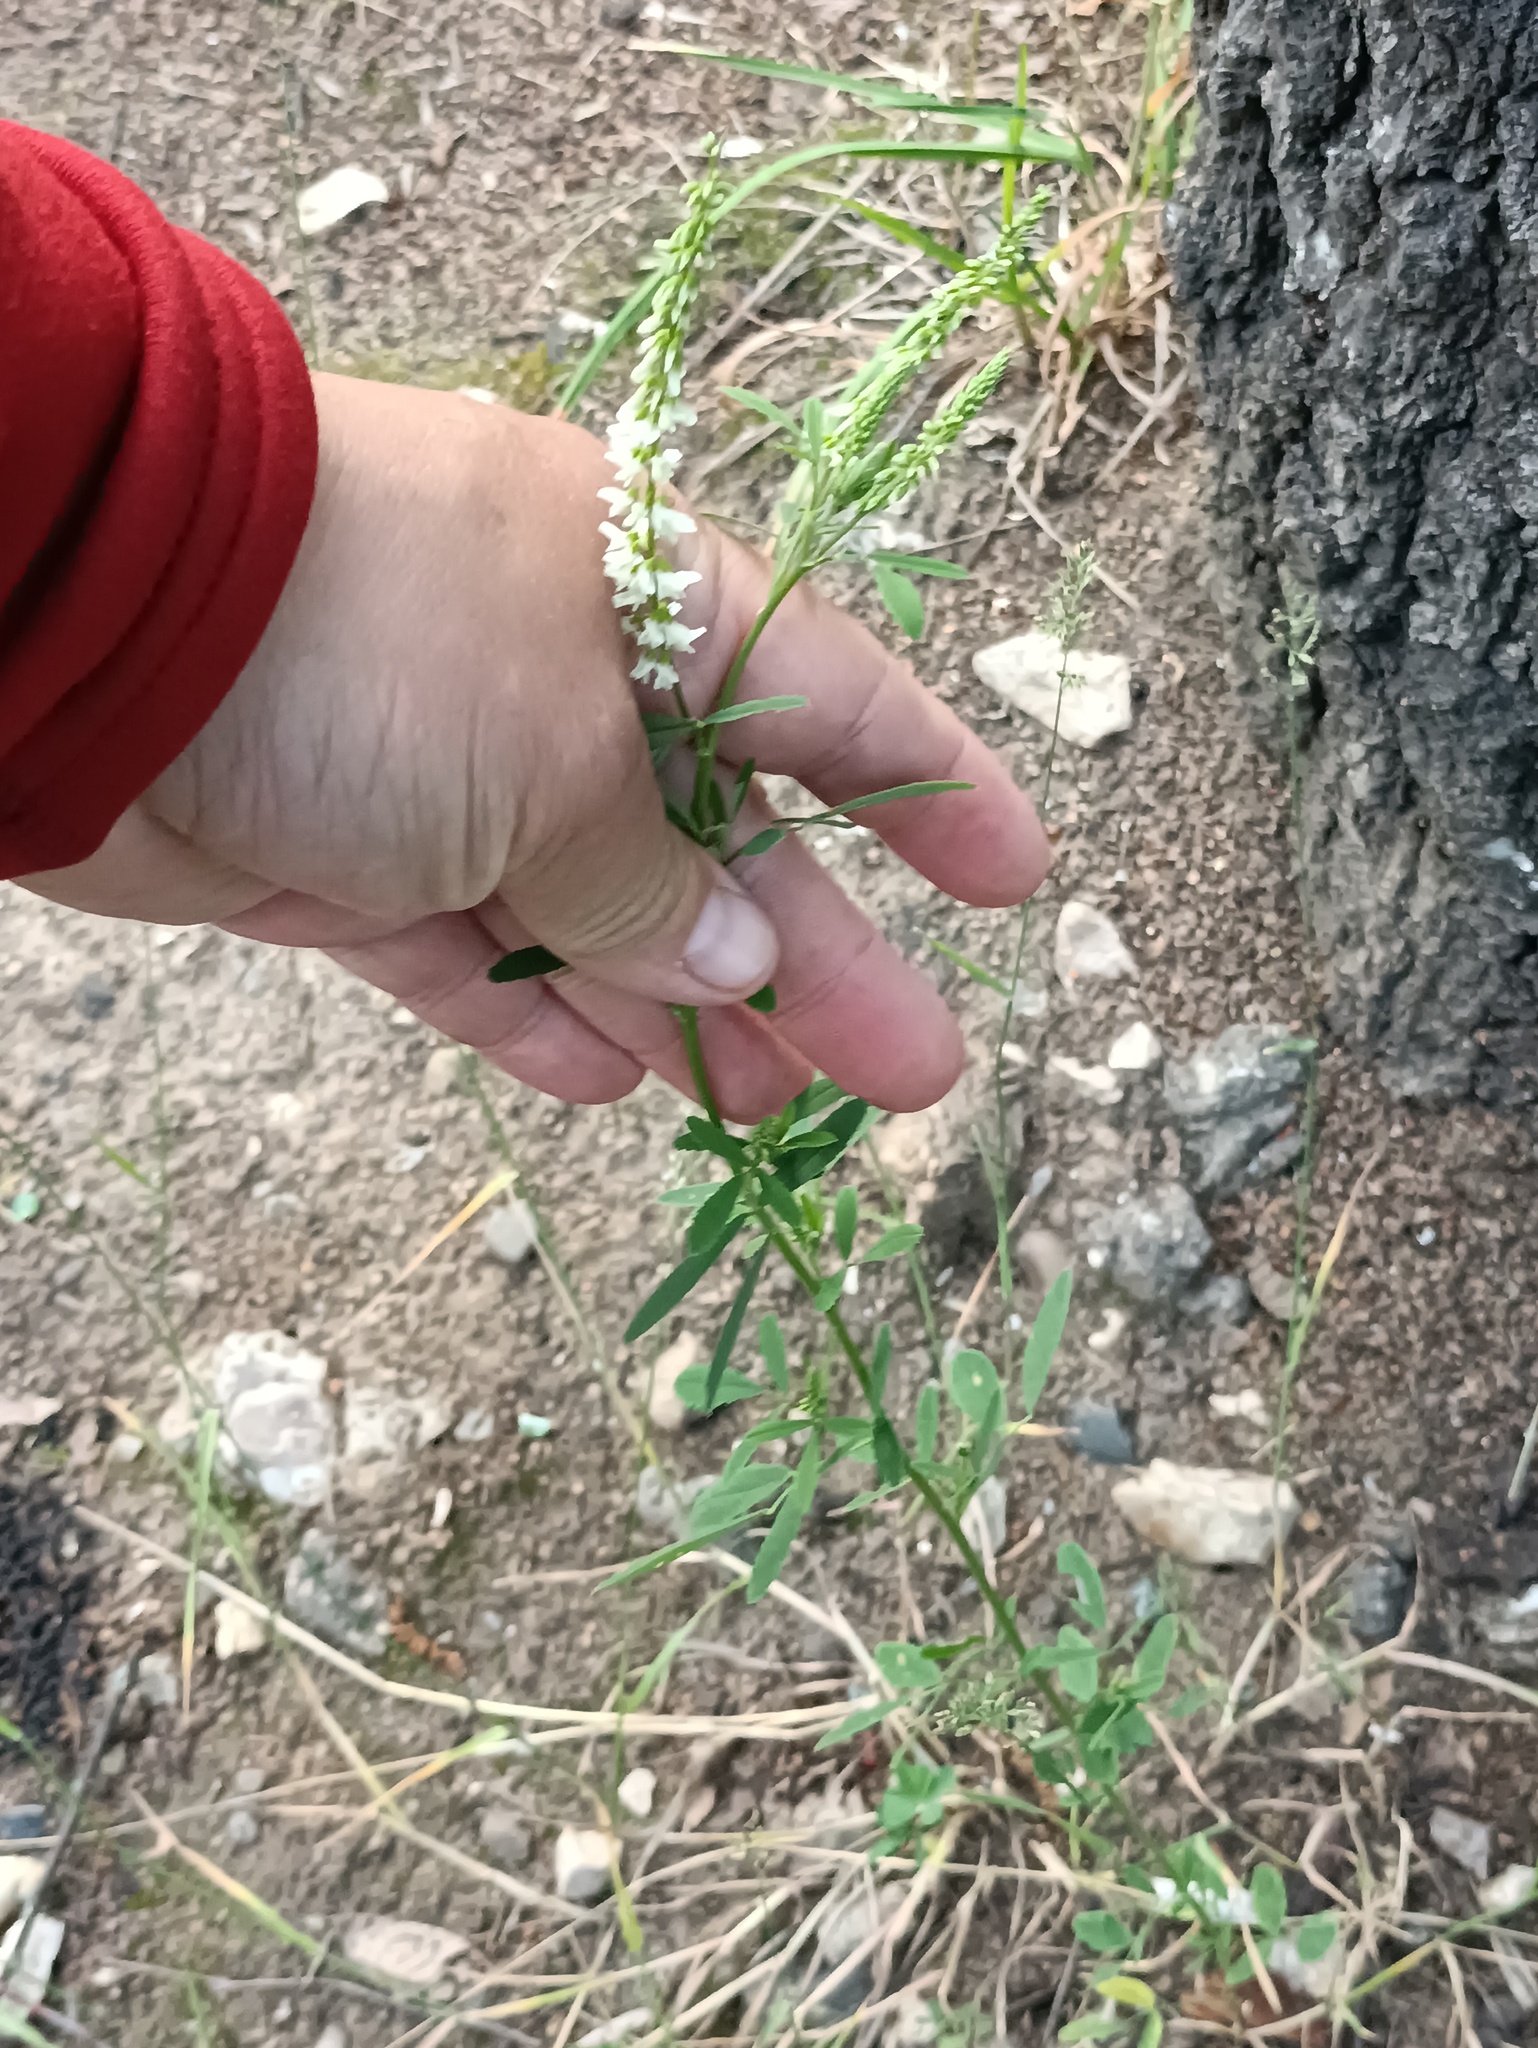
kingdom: Plantae
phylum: Tracheophyta
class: Magnoliopsida
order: Fabales
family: Fabaceae
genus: Melilotus
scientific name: Melilotus albus
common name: White melilot
